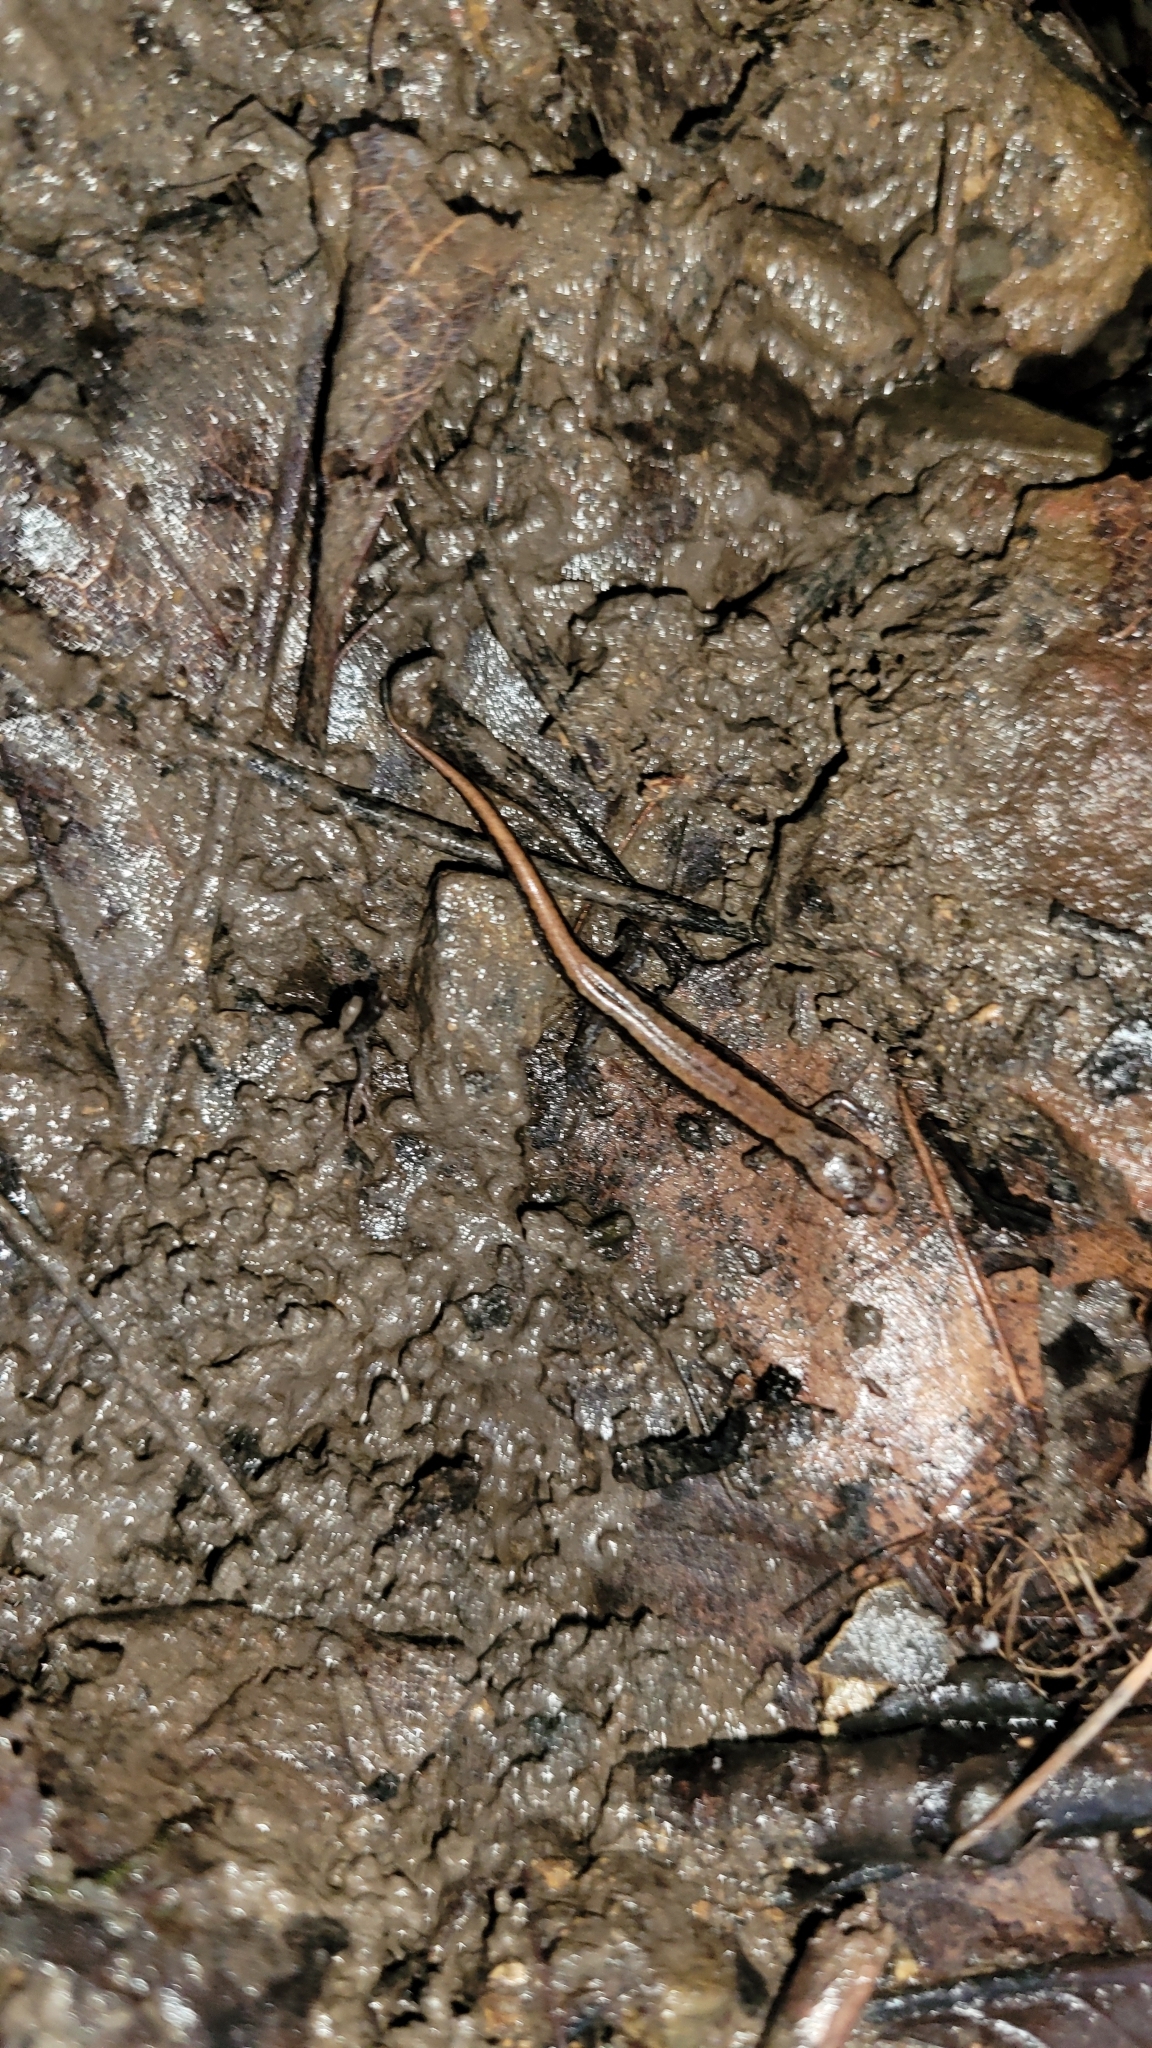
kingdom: Animalia
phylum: Chordata
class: Amphibia
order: Caudata
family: Plethodontidae
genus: Desmognathus
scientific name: Desmognathus ochrophaeus
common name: Allegheny mountain dusky salamander
